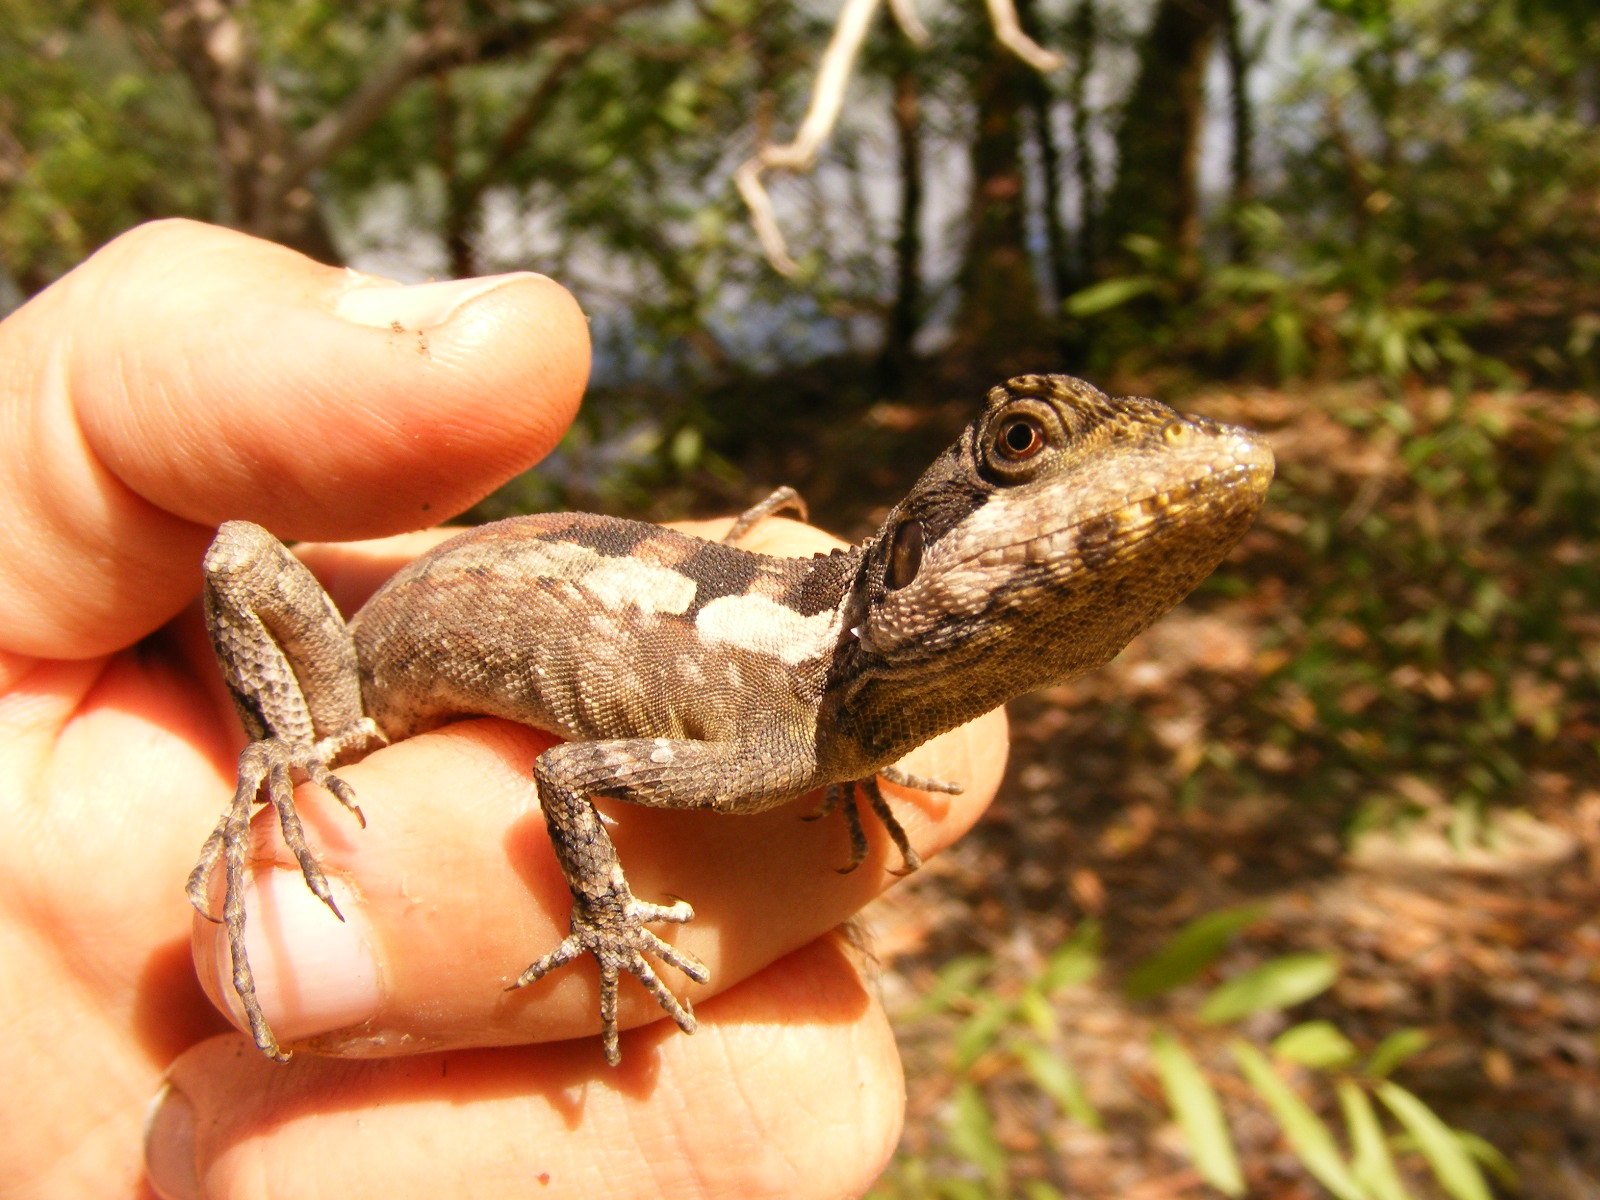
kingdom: Animalia
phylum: Chordata
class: Squamata
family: Agamidae
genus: Tropicagama
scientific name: Tropicagama temporalis
